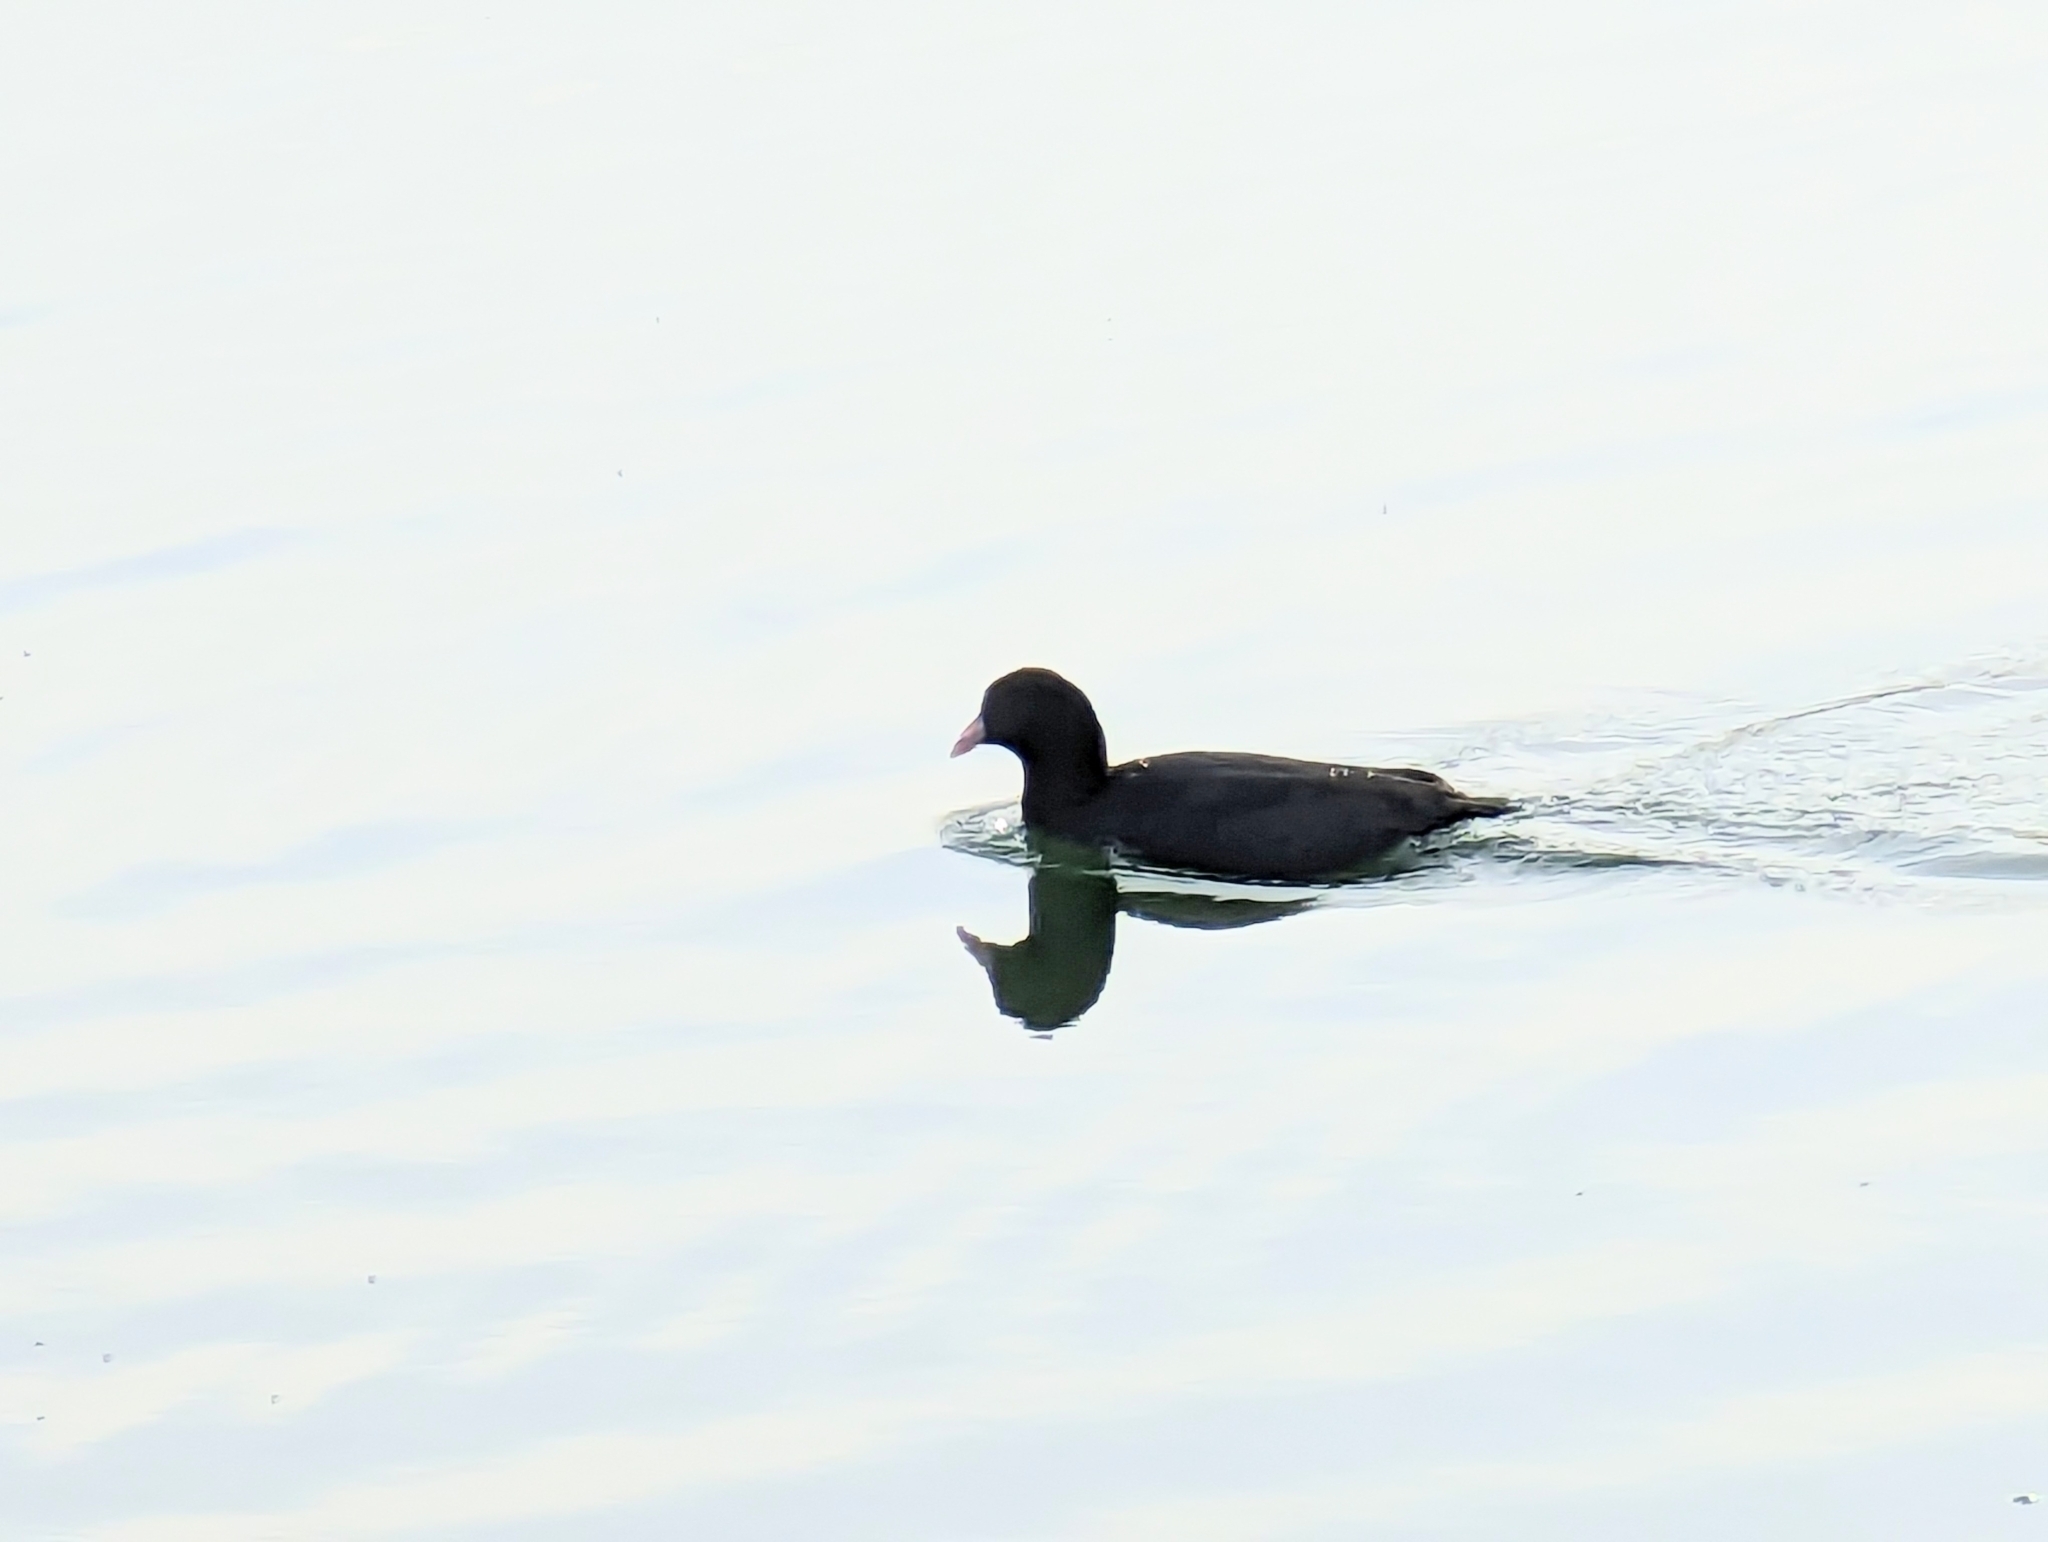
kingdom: Animalia
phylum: Chordata
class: Aves
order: Gruiformes
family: Rallidae
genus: Fulica
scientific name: Fulica atra
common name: Eurasian coot
